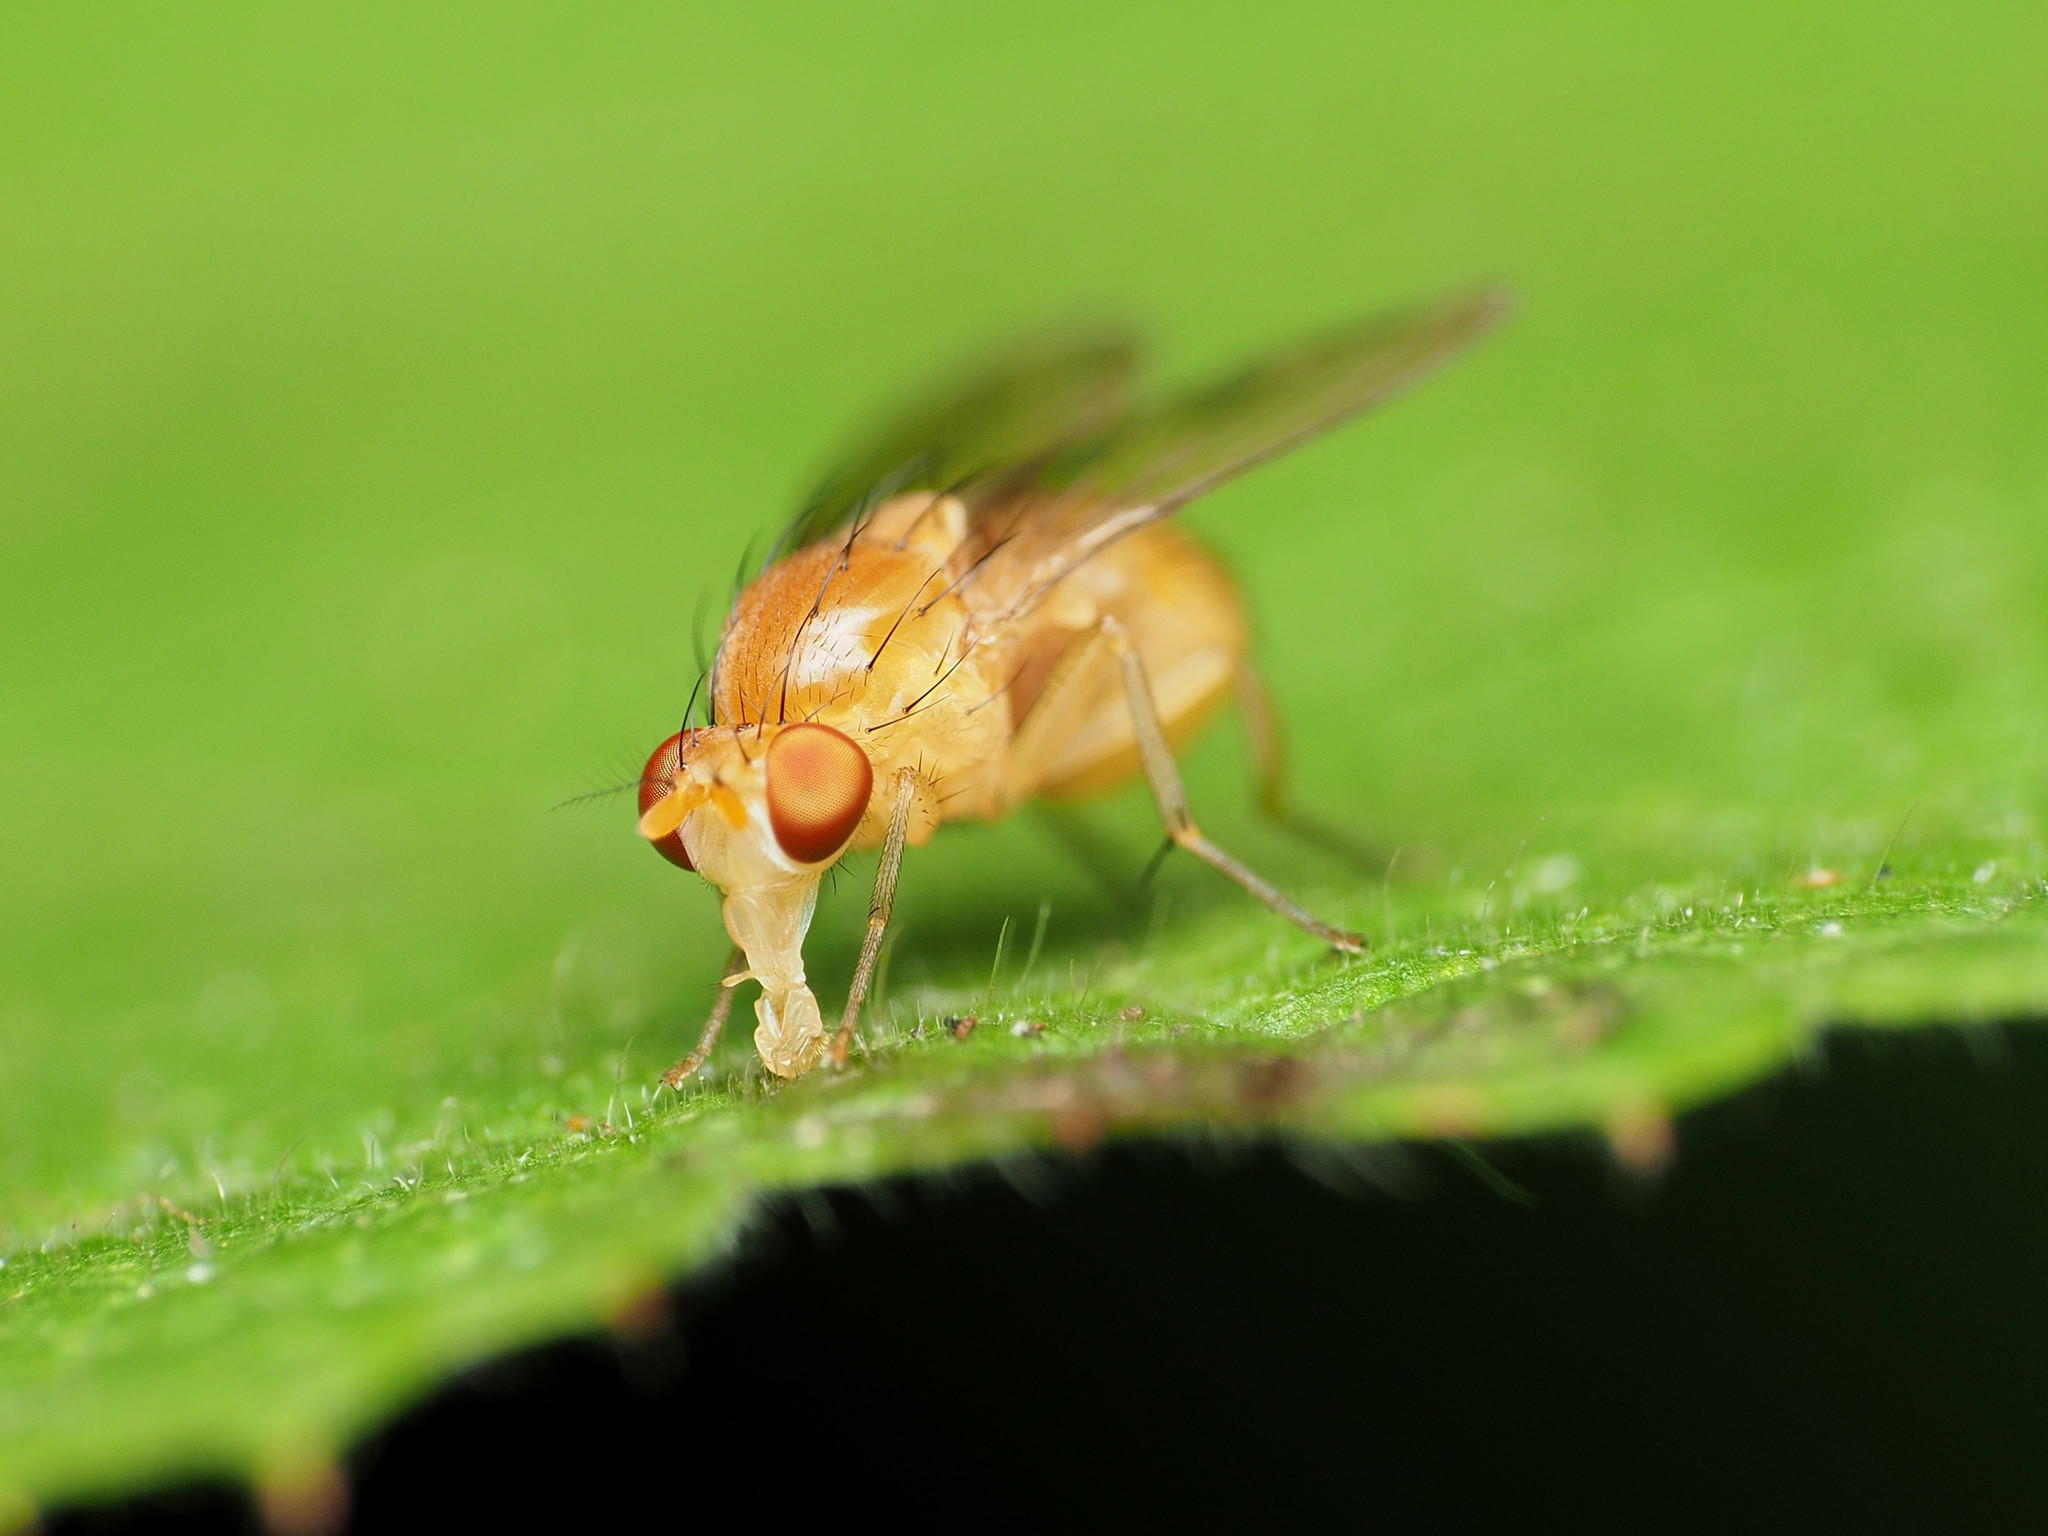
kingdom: Animalia
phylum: Arthropoda
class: Insecta
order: Diptera
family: Lauxaniidae
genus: Neogriphoneura
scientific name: Neogriphoneura sordida
